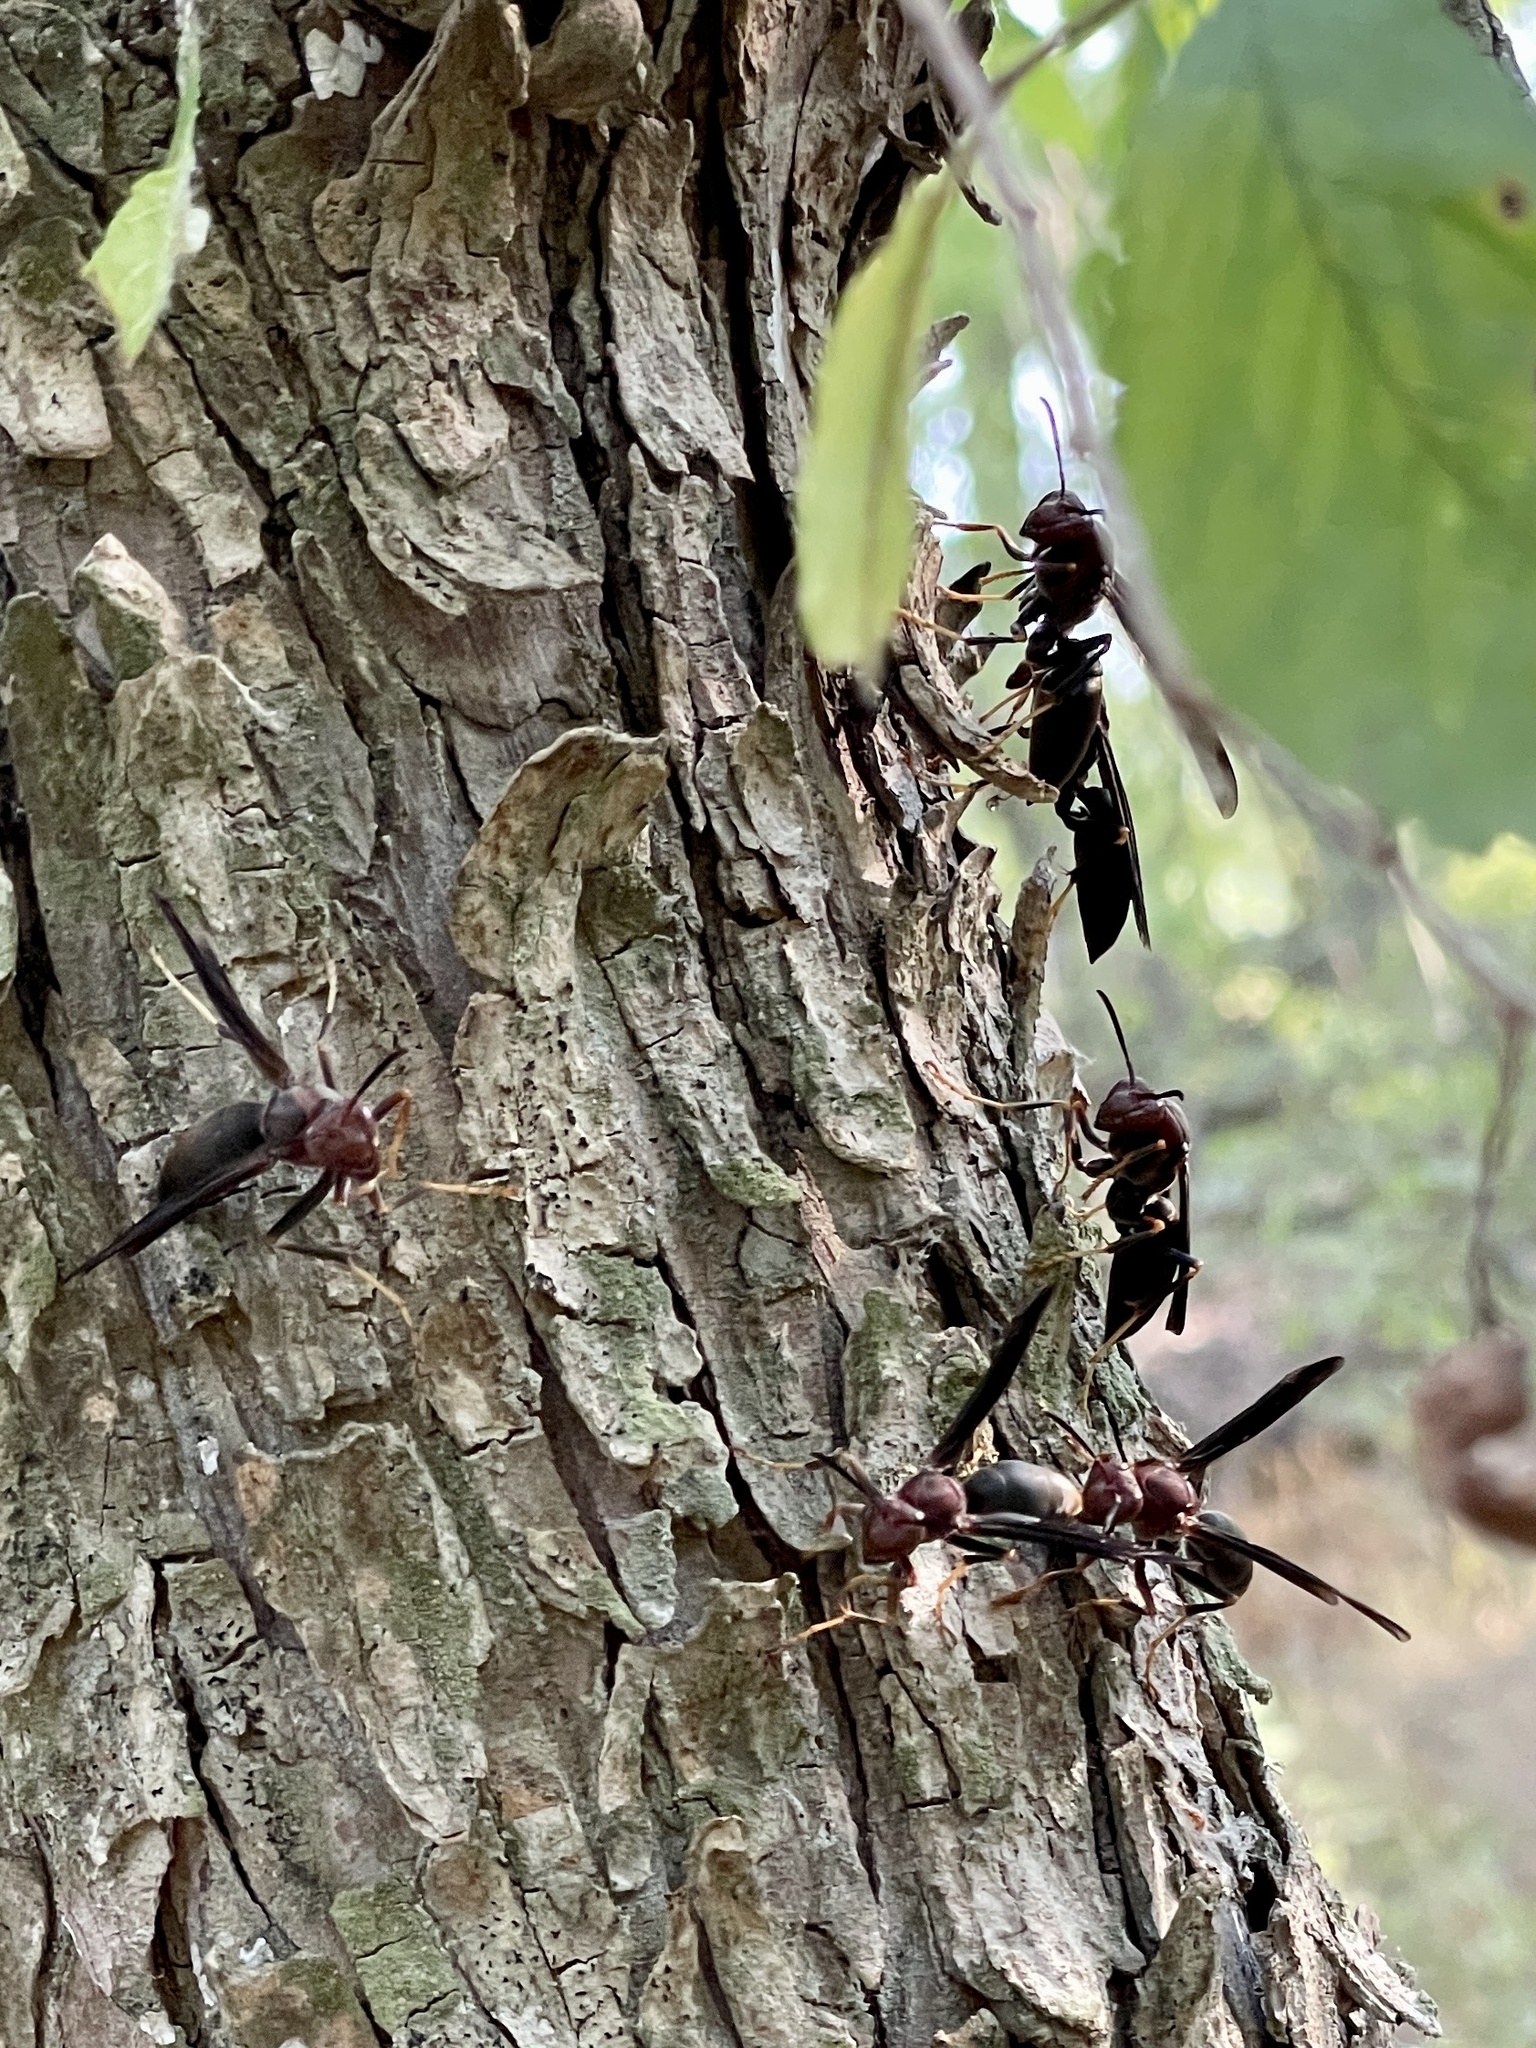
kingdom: Animalia
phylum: Arthropoda
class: Insecta
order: Hymenoptera
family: Eumenidae
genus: Polistes
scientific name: Polistes metricus
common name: Metric paper wasp
